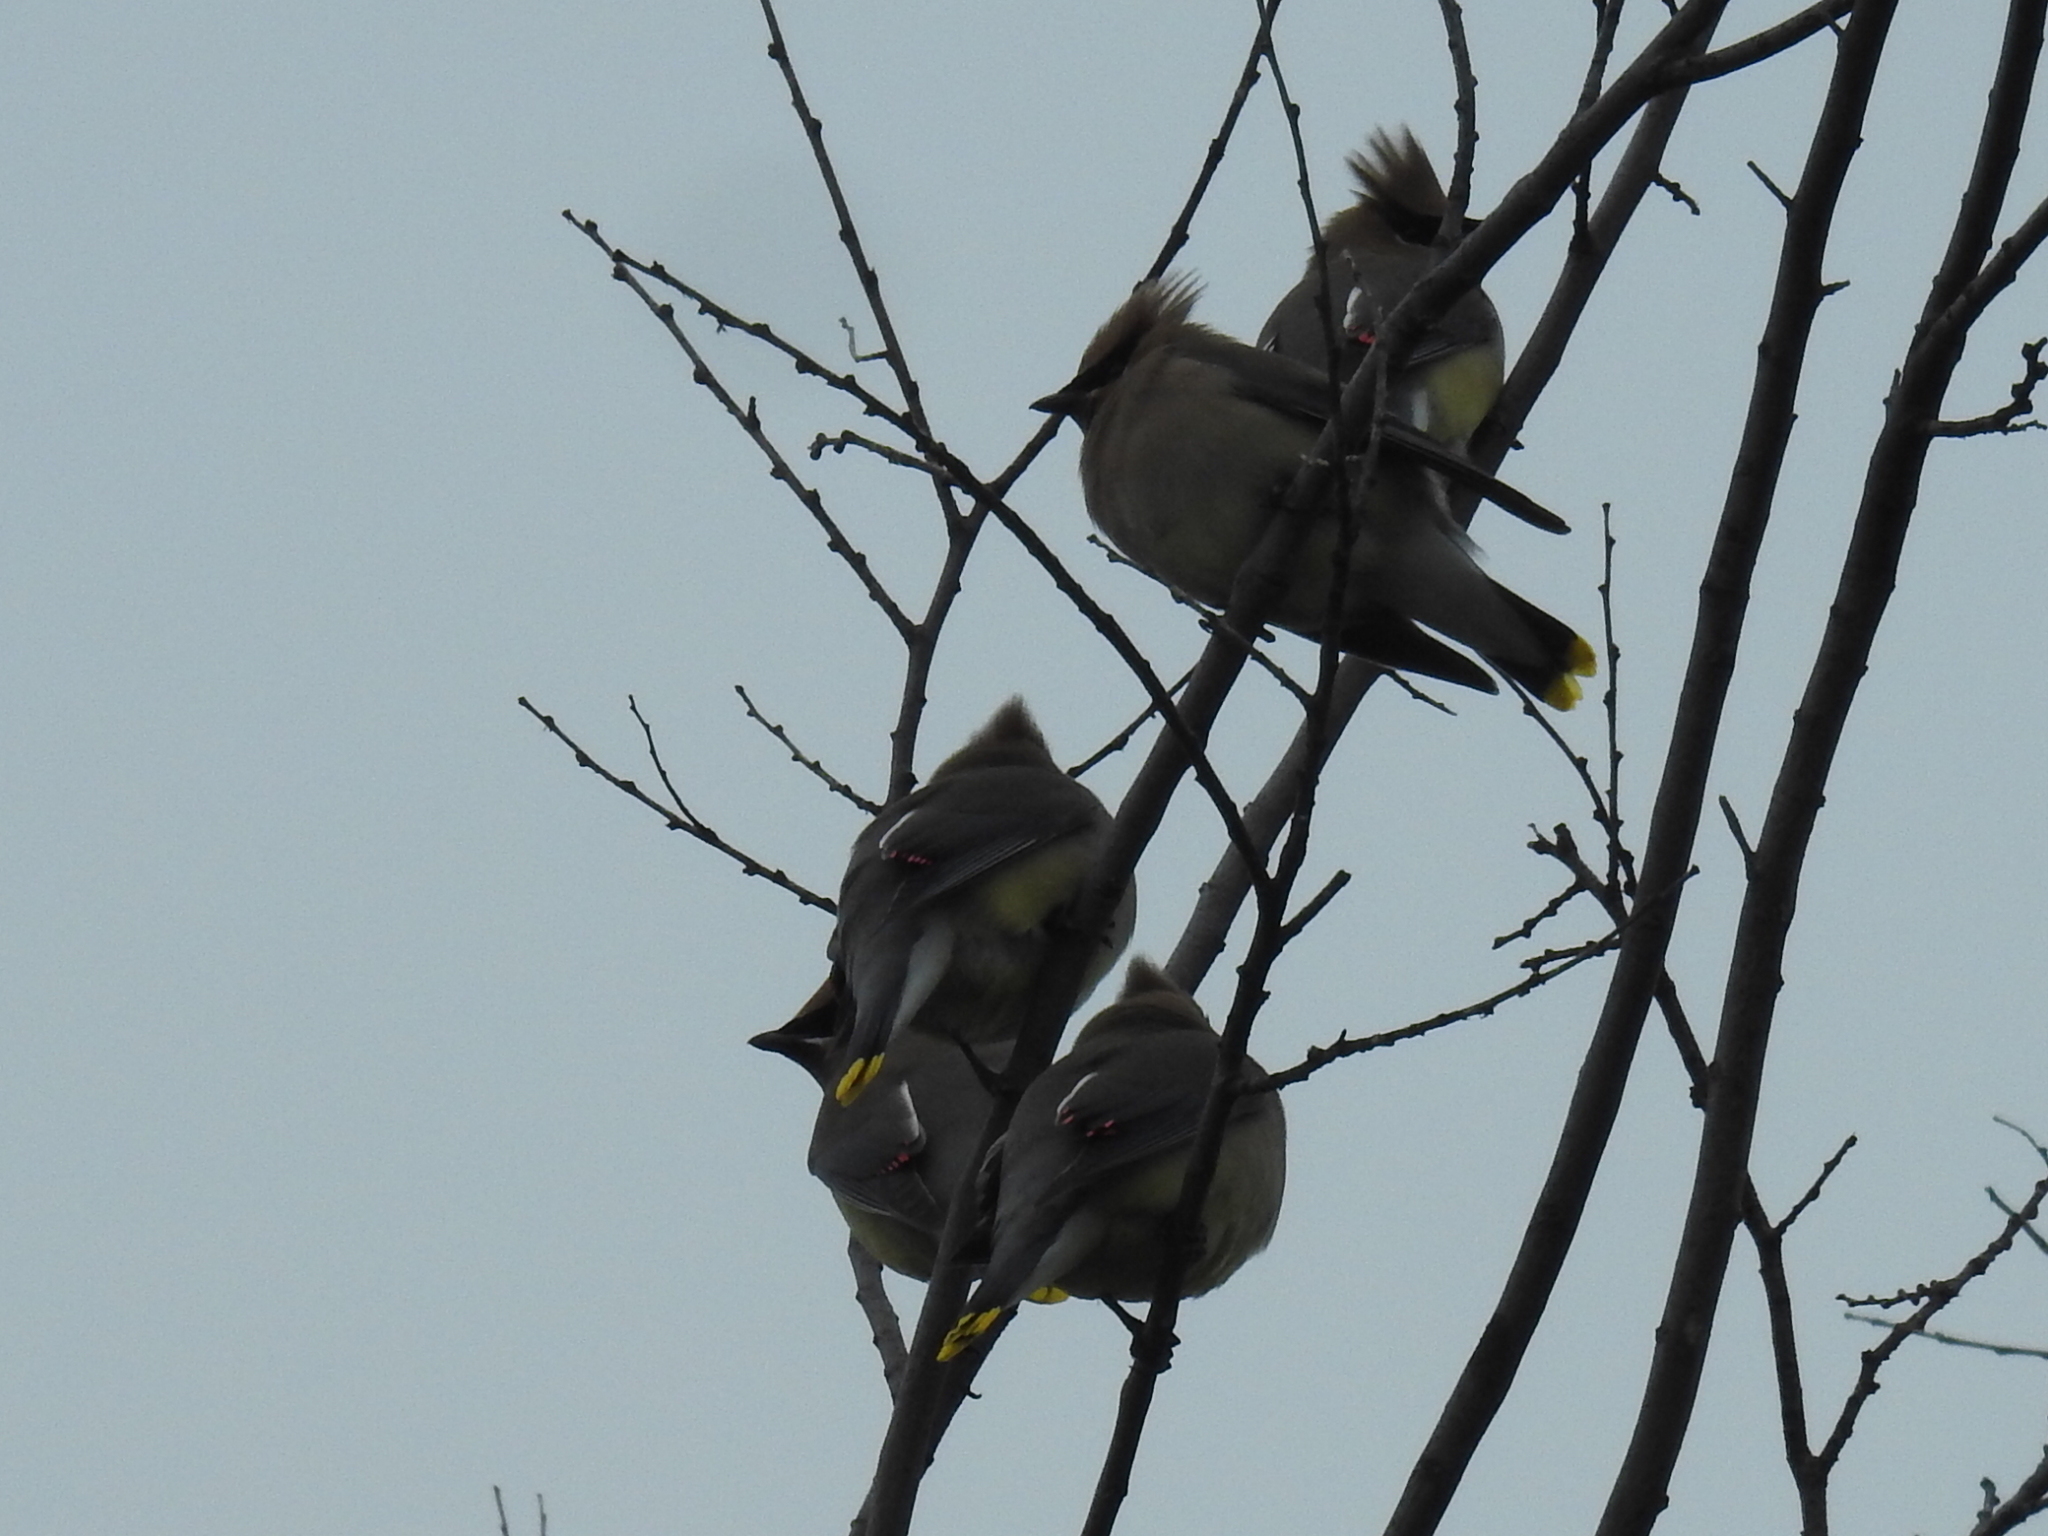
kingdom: Animalia
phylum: Chordata
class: Aves
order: Passeriformes
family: Bombycillidae
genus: Bombycilla
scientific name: Bombycilla cedrorum
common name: Cedar waxwing
